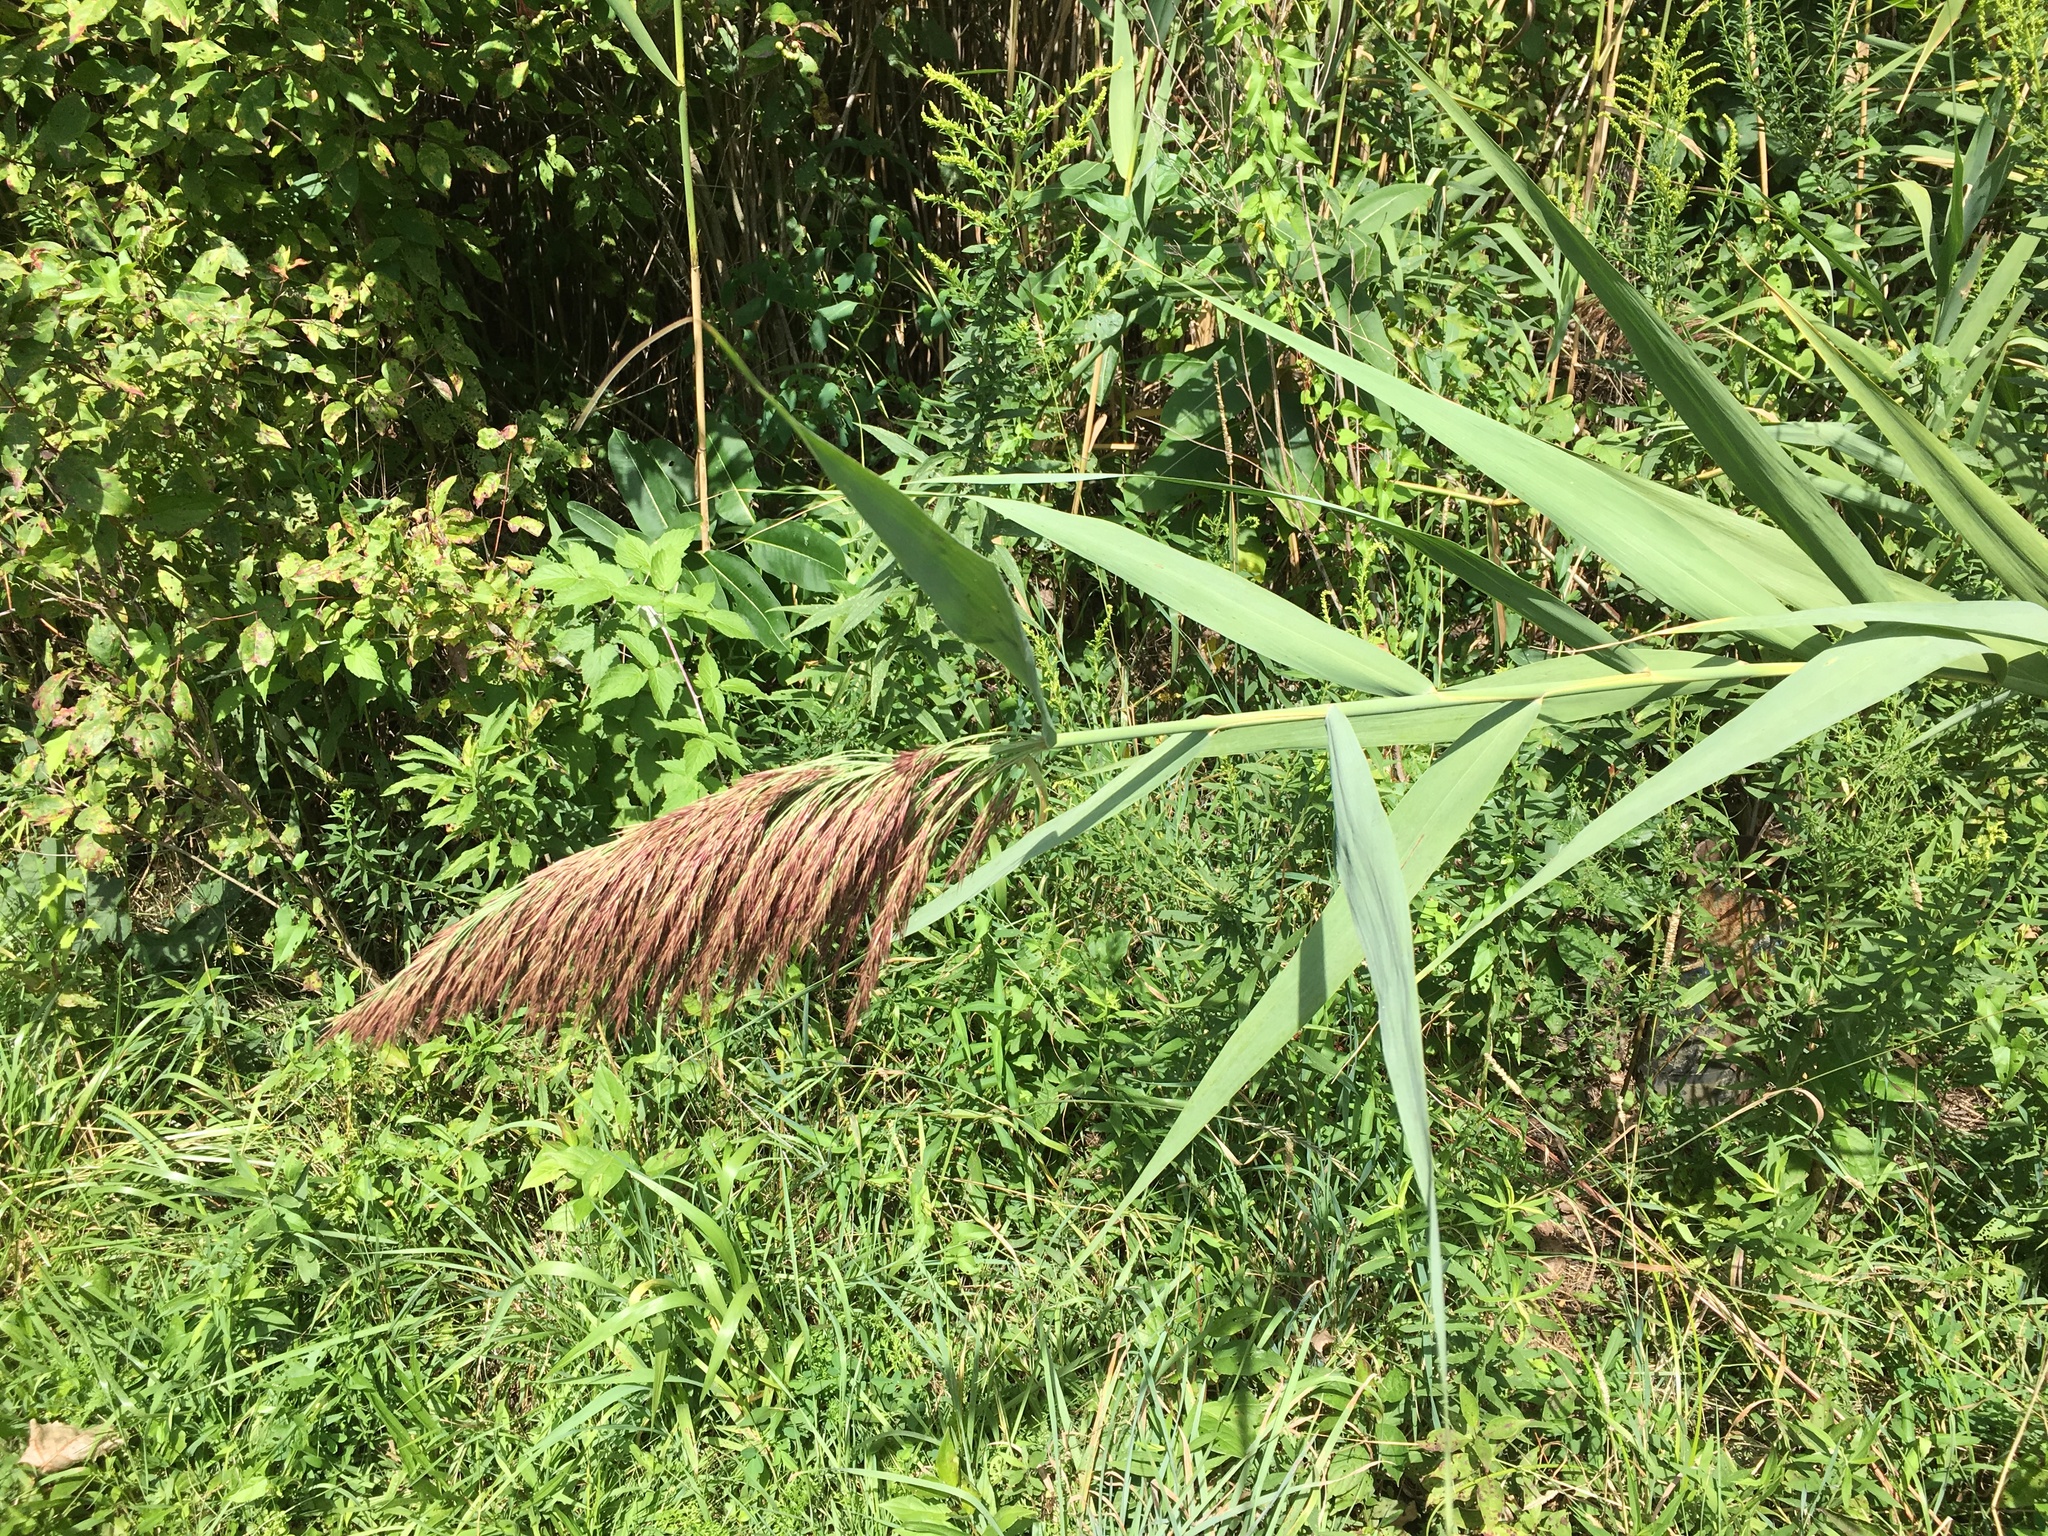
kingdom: Plantae
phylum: Tracheophyta
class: Liliopsida
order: Poales
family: Poaceae
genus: Phragmites
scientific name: Phragmites australis
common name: Common reed
